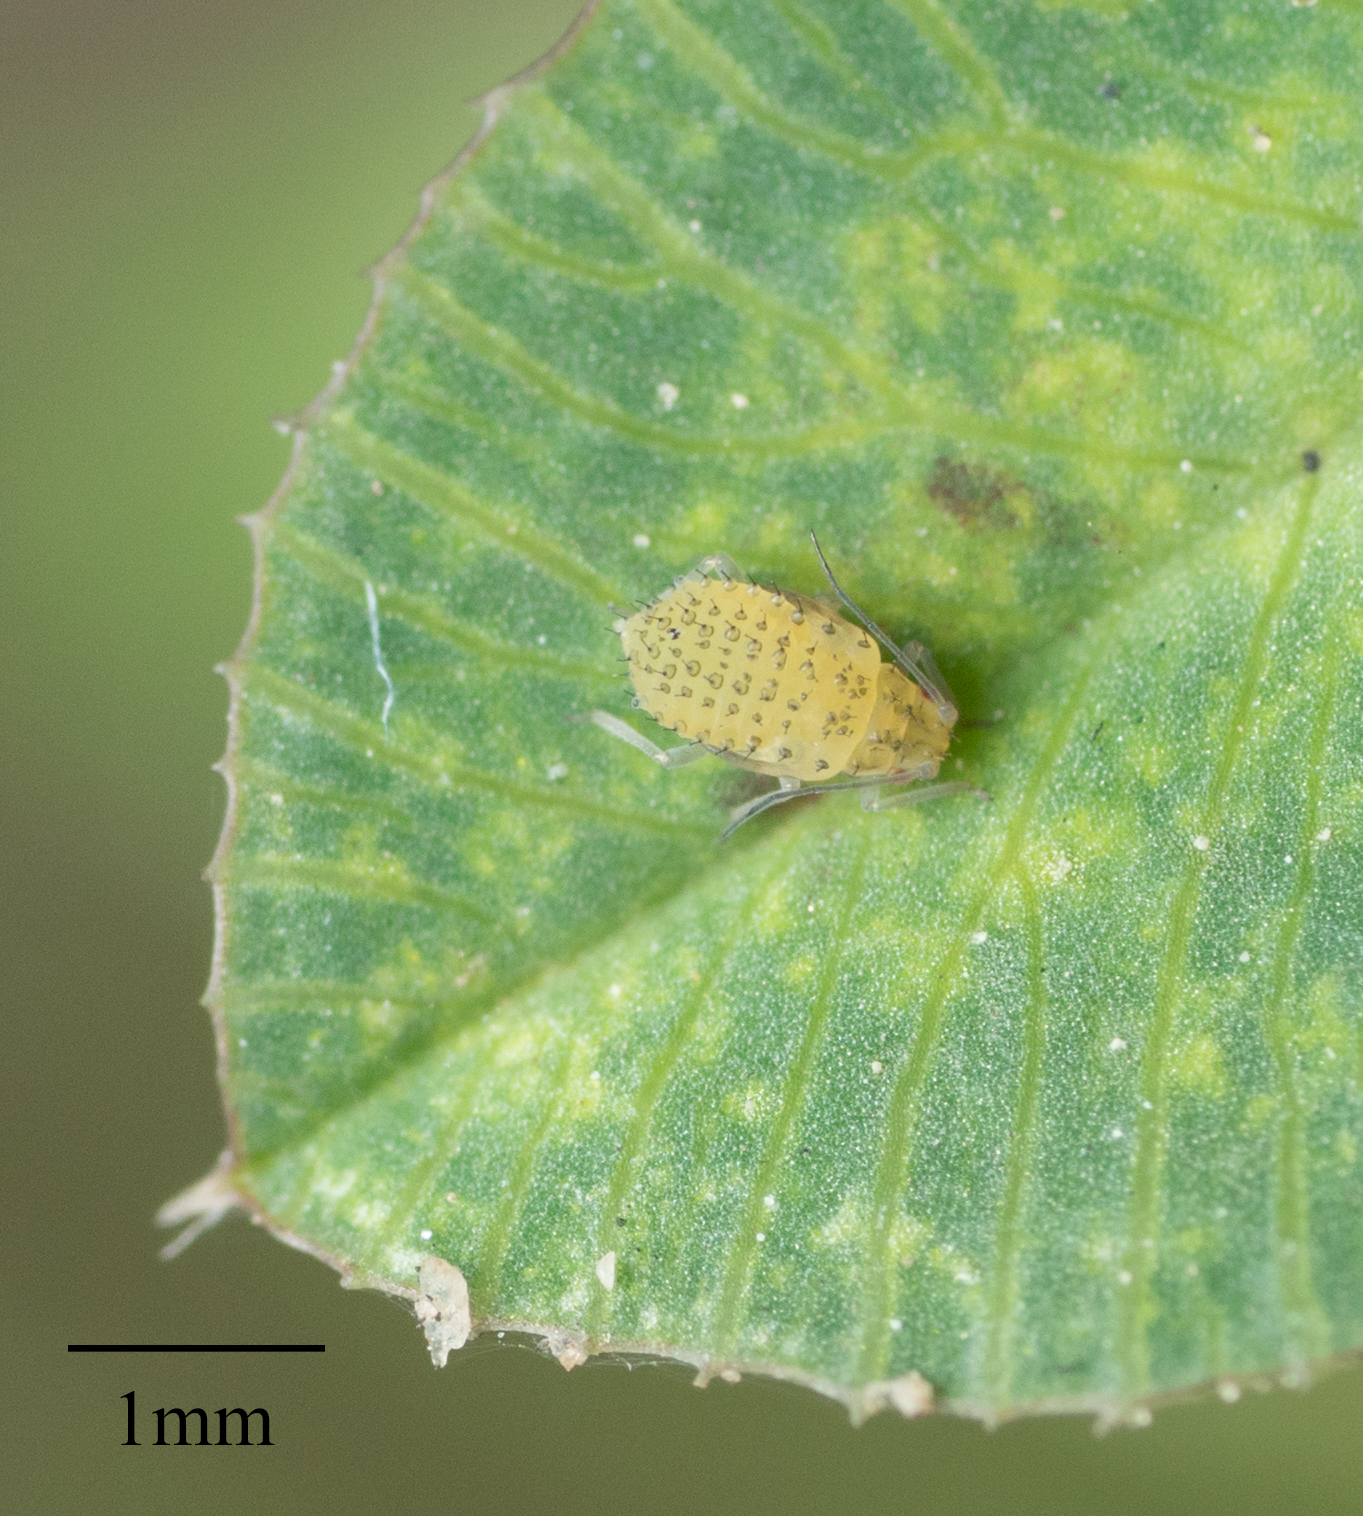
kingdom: Animalia
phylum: Arthropoda
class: Insecta
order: Hemiptera
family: Aphididae
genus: Therioaphis
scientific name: Therioaphis trifolii
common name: Spotted alfalfa aphid
